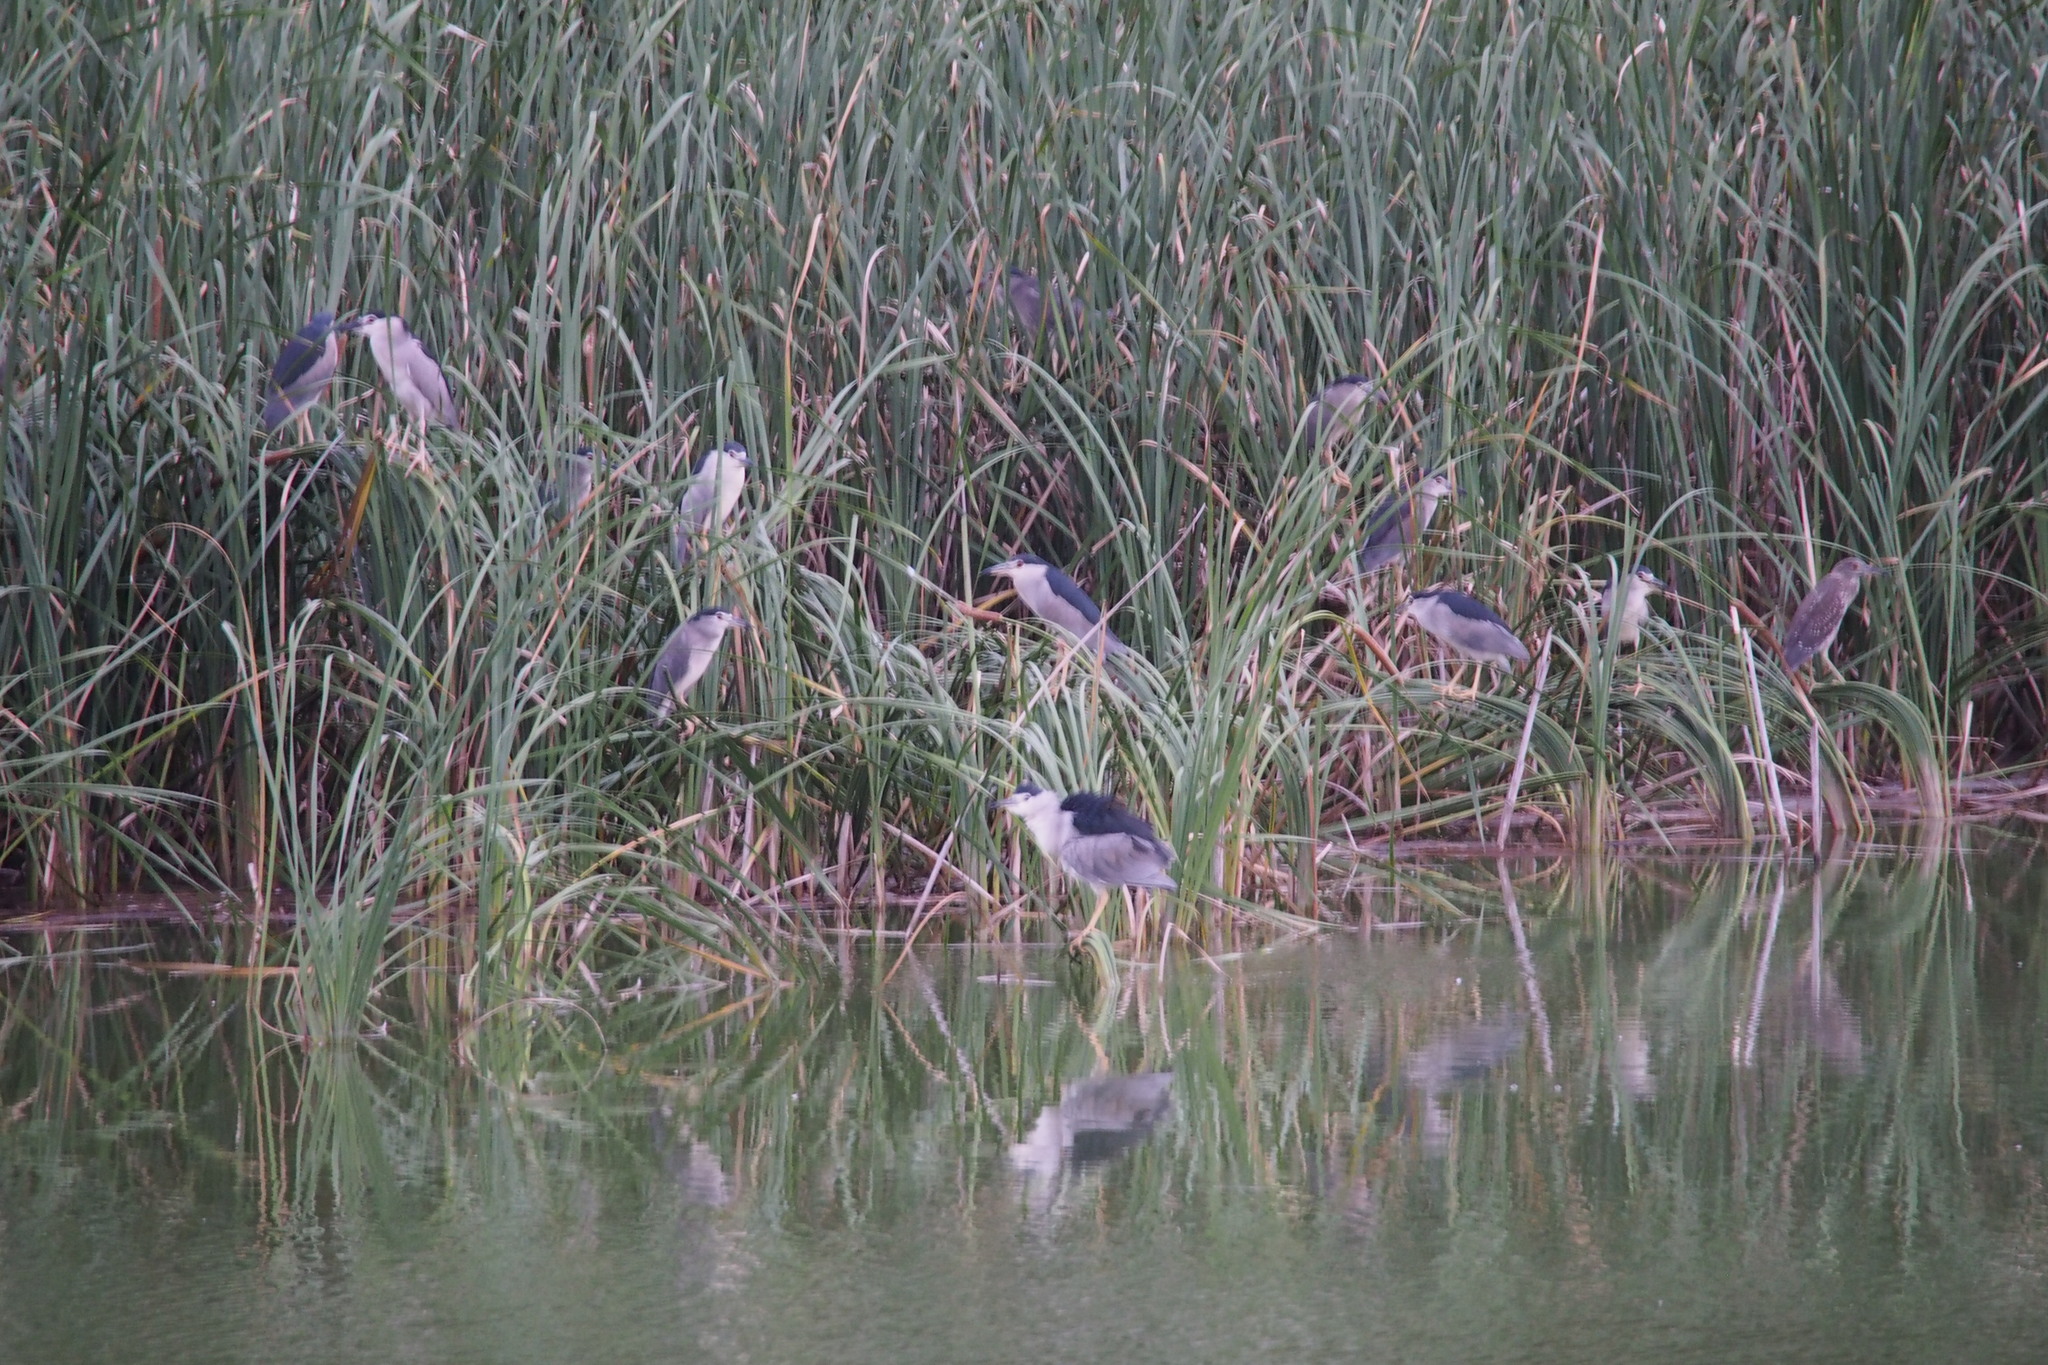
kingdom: Animalia
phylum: Chordata
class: Aves
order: Pelecaniformes
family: Ardeidae
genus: Nycticorax
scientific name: Nycticorax nycticorax
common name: Black-crowned night heron
